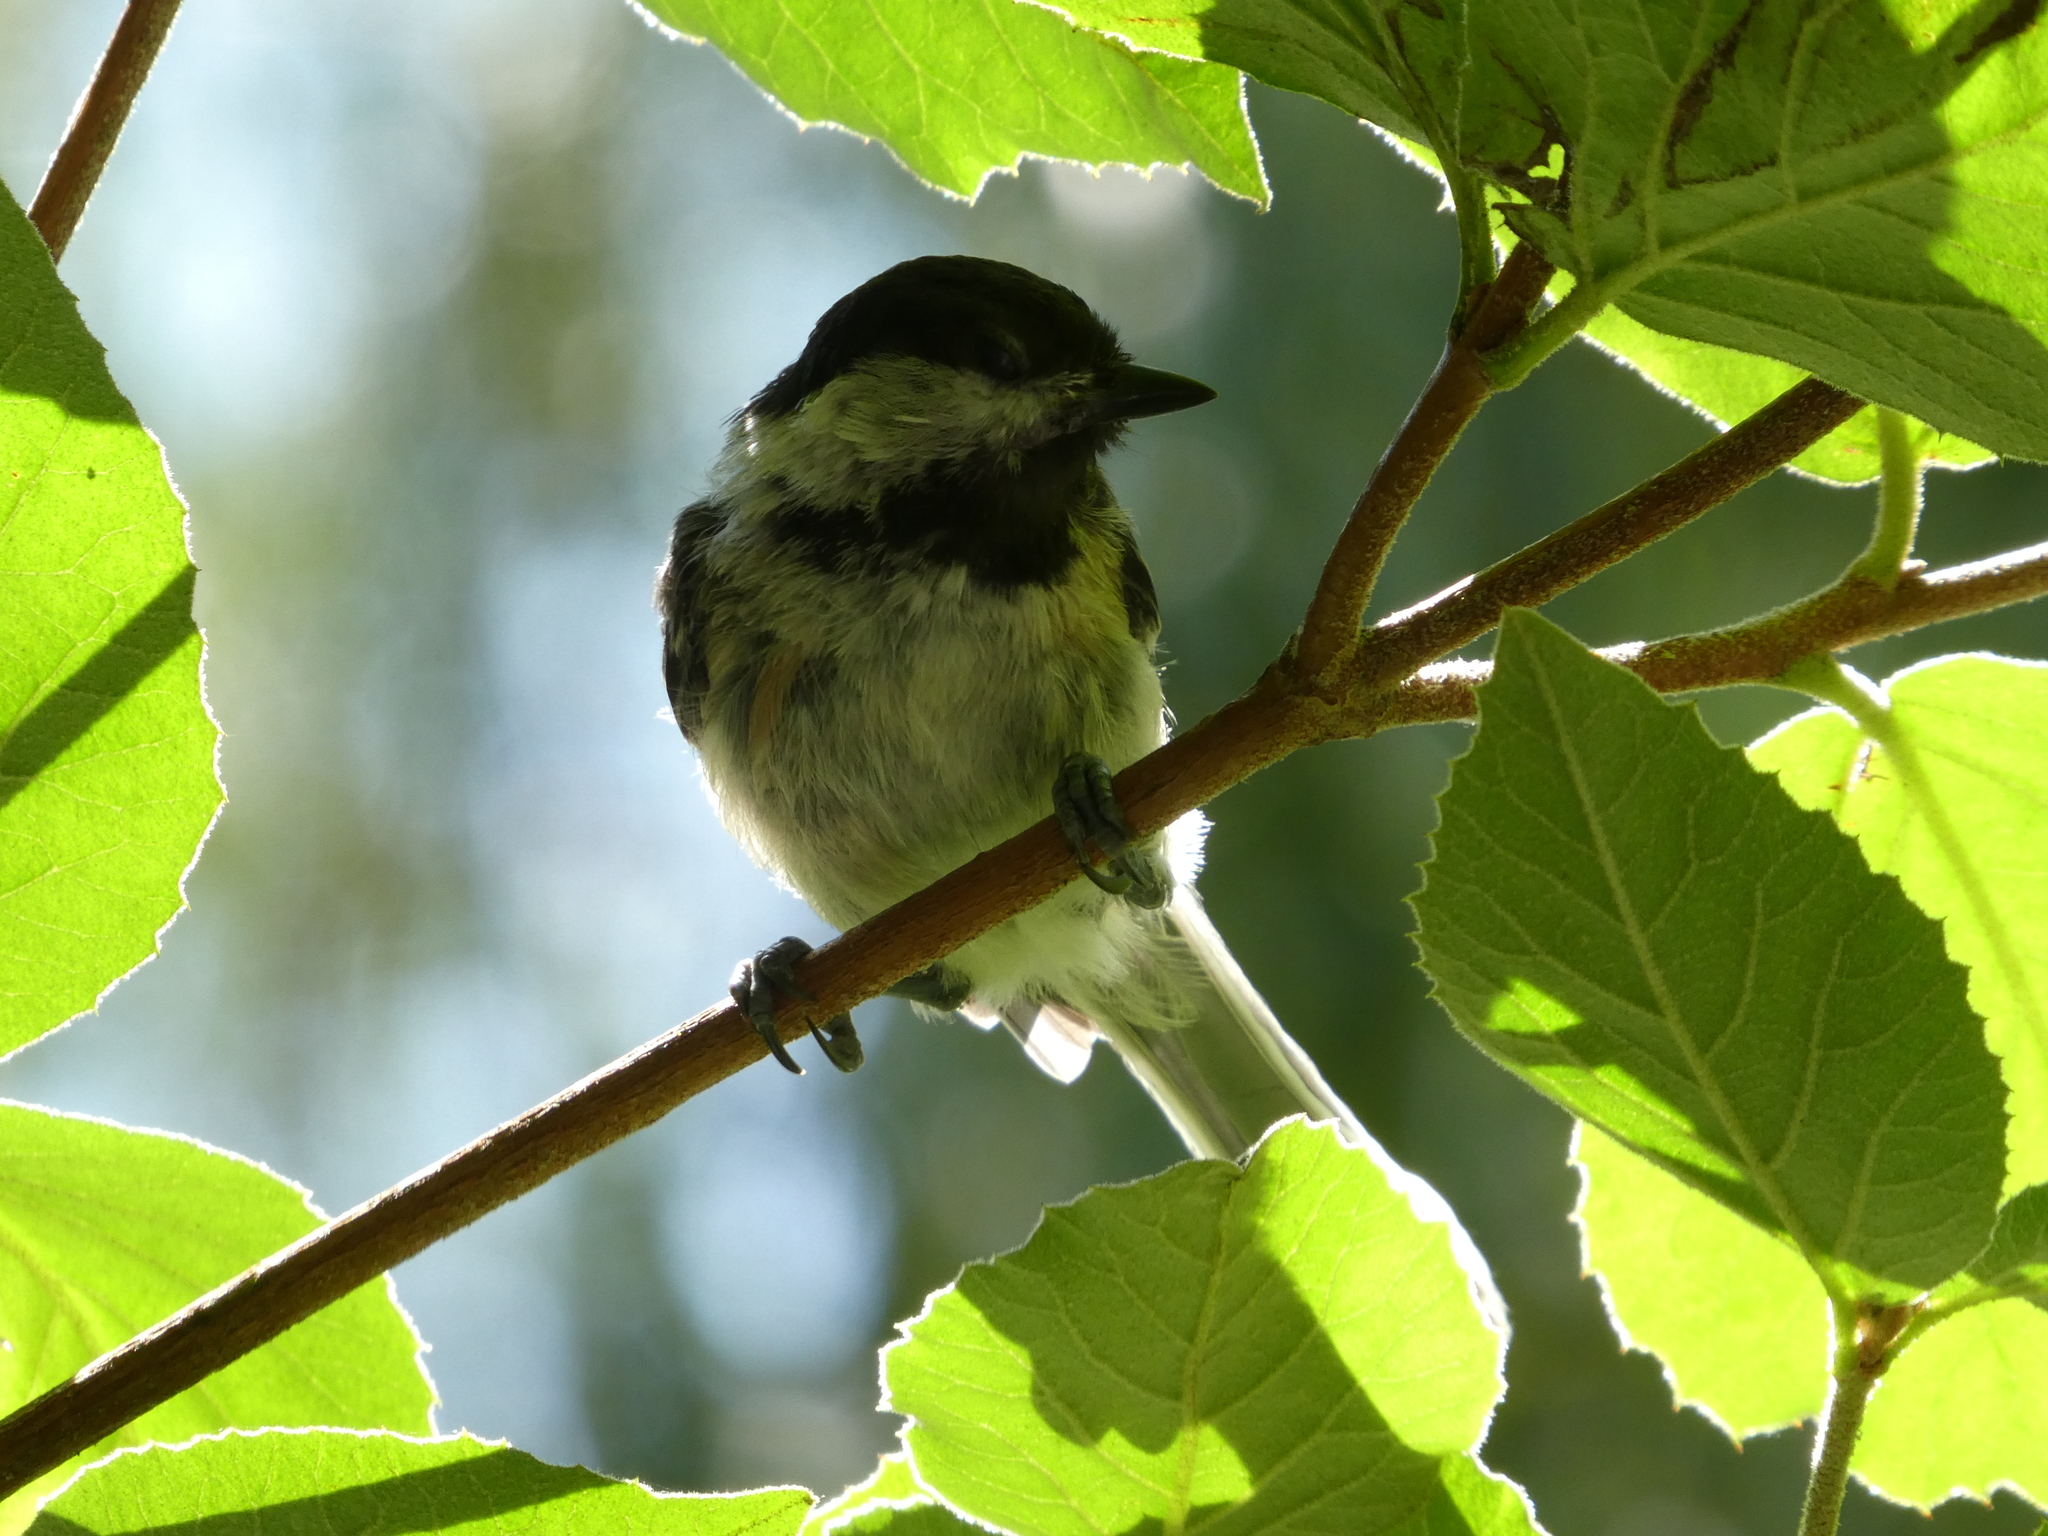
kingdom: Animalia
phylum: Chordata
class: Aves
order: Passeriformes
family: Paridae
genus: Poecile
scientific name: Poecile atricapillus
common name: Black-capped chickadee
